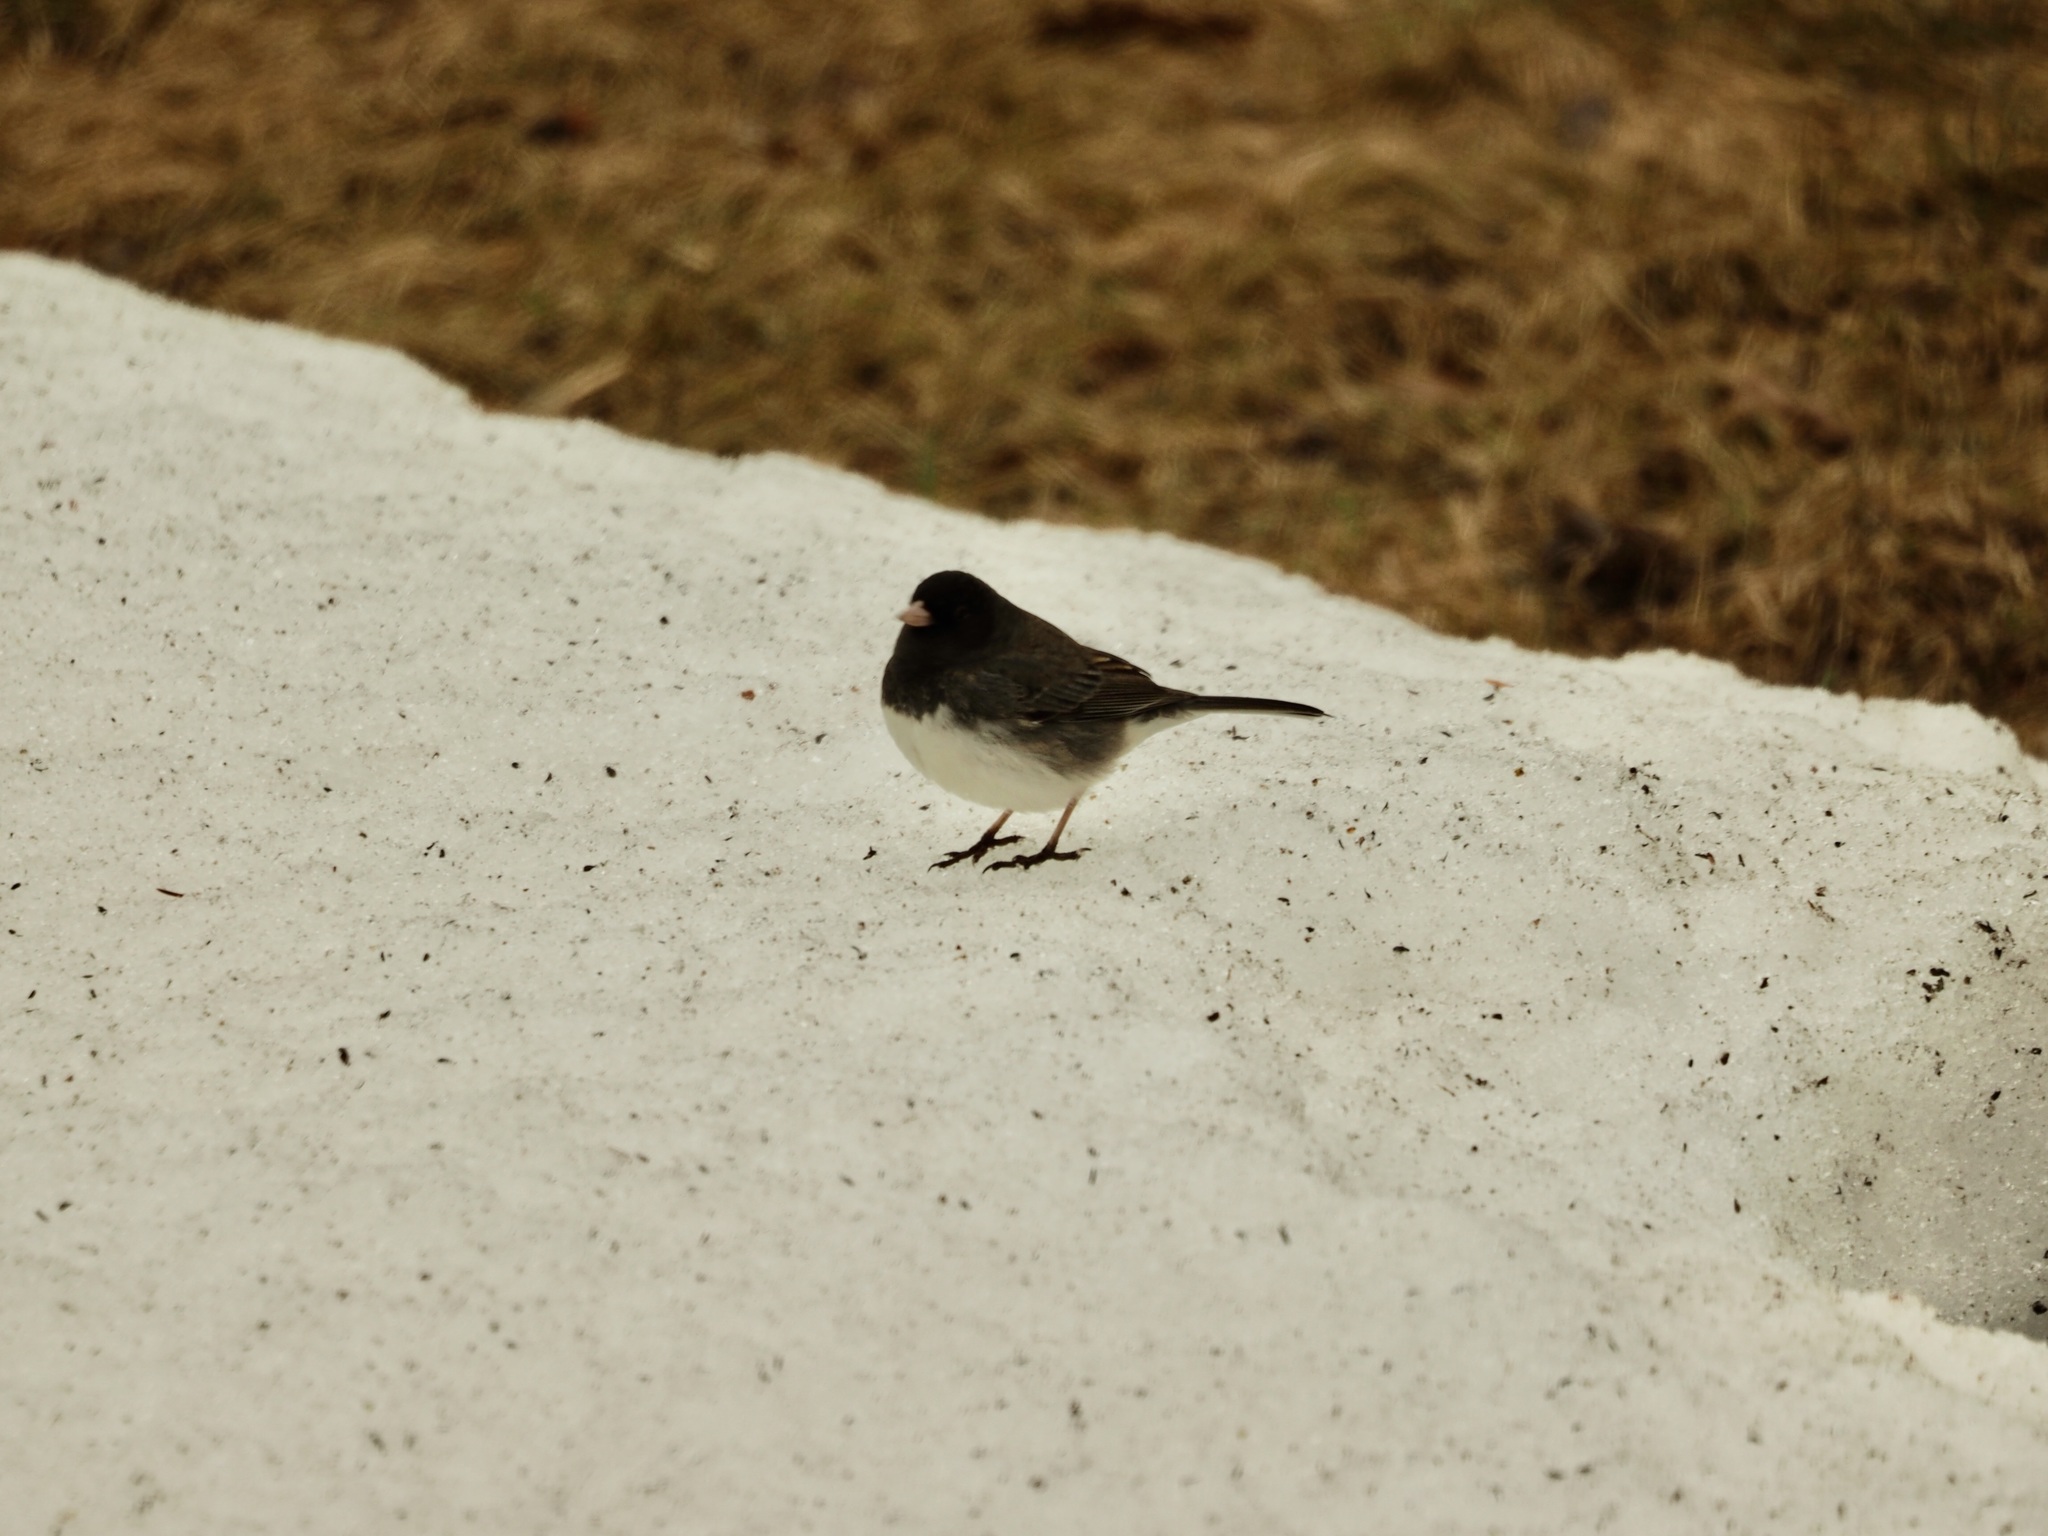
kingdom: Animalia
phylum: Chordata
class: Aves
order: Passeriformes
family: Passerellidae
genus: Junco
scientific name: Junco hyemalis
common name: Dark-eyed junco
